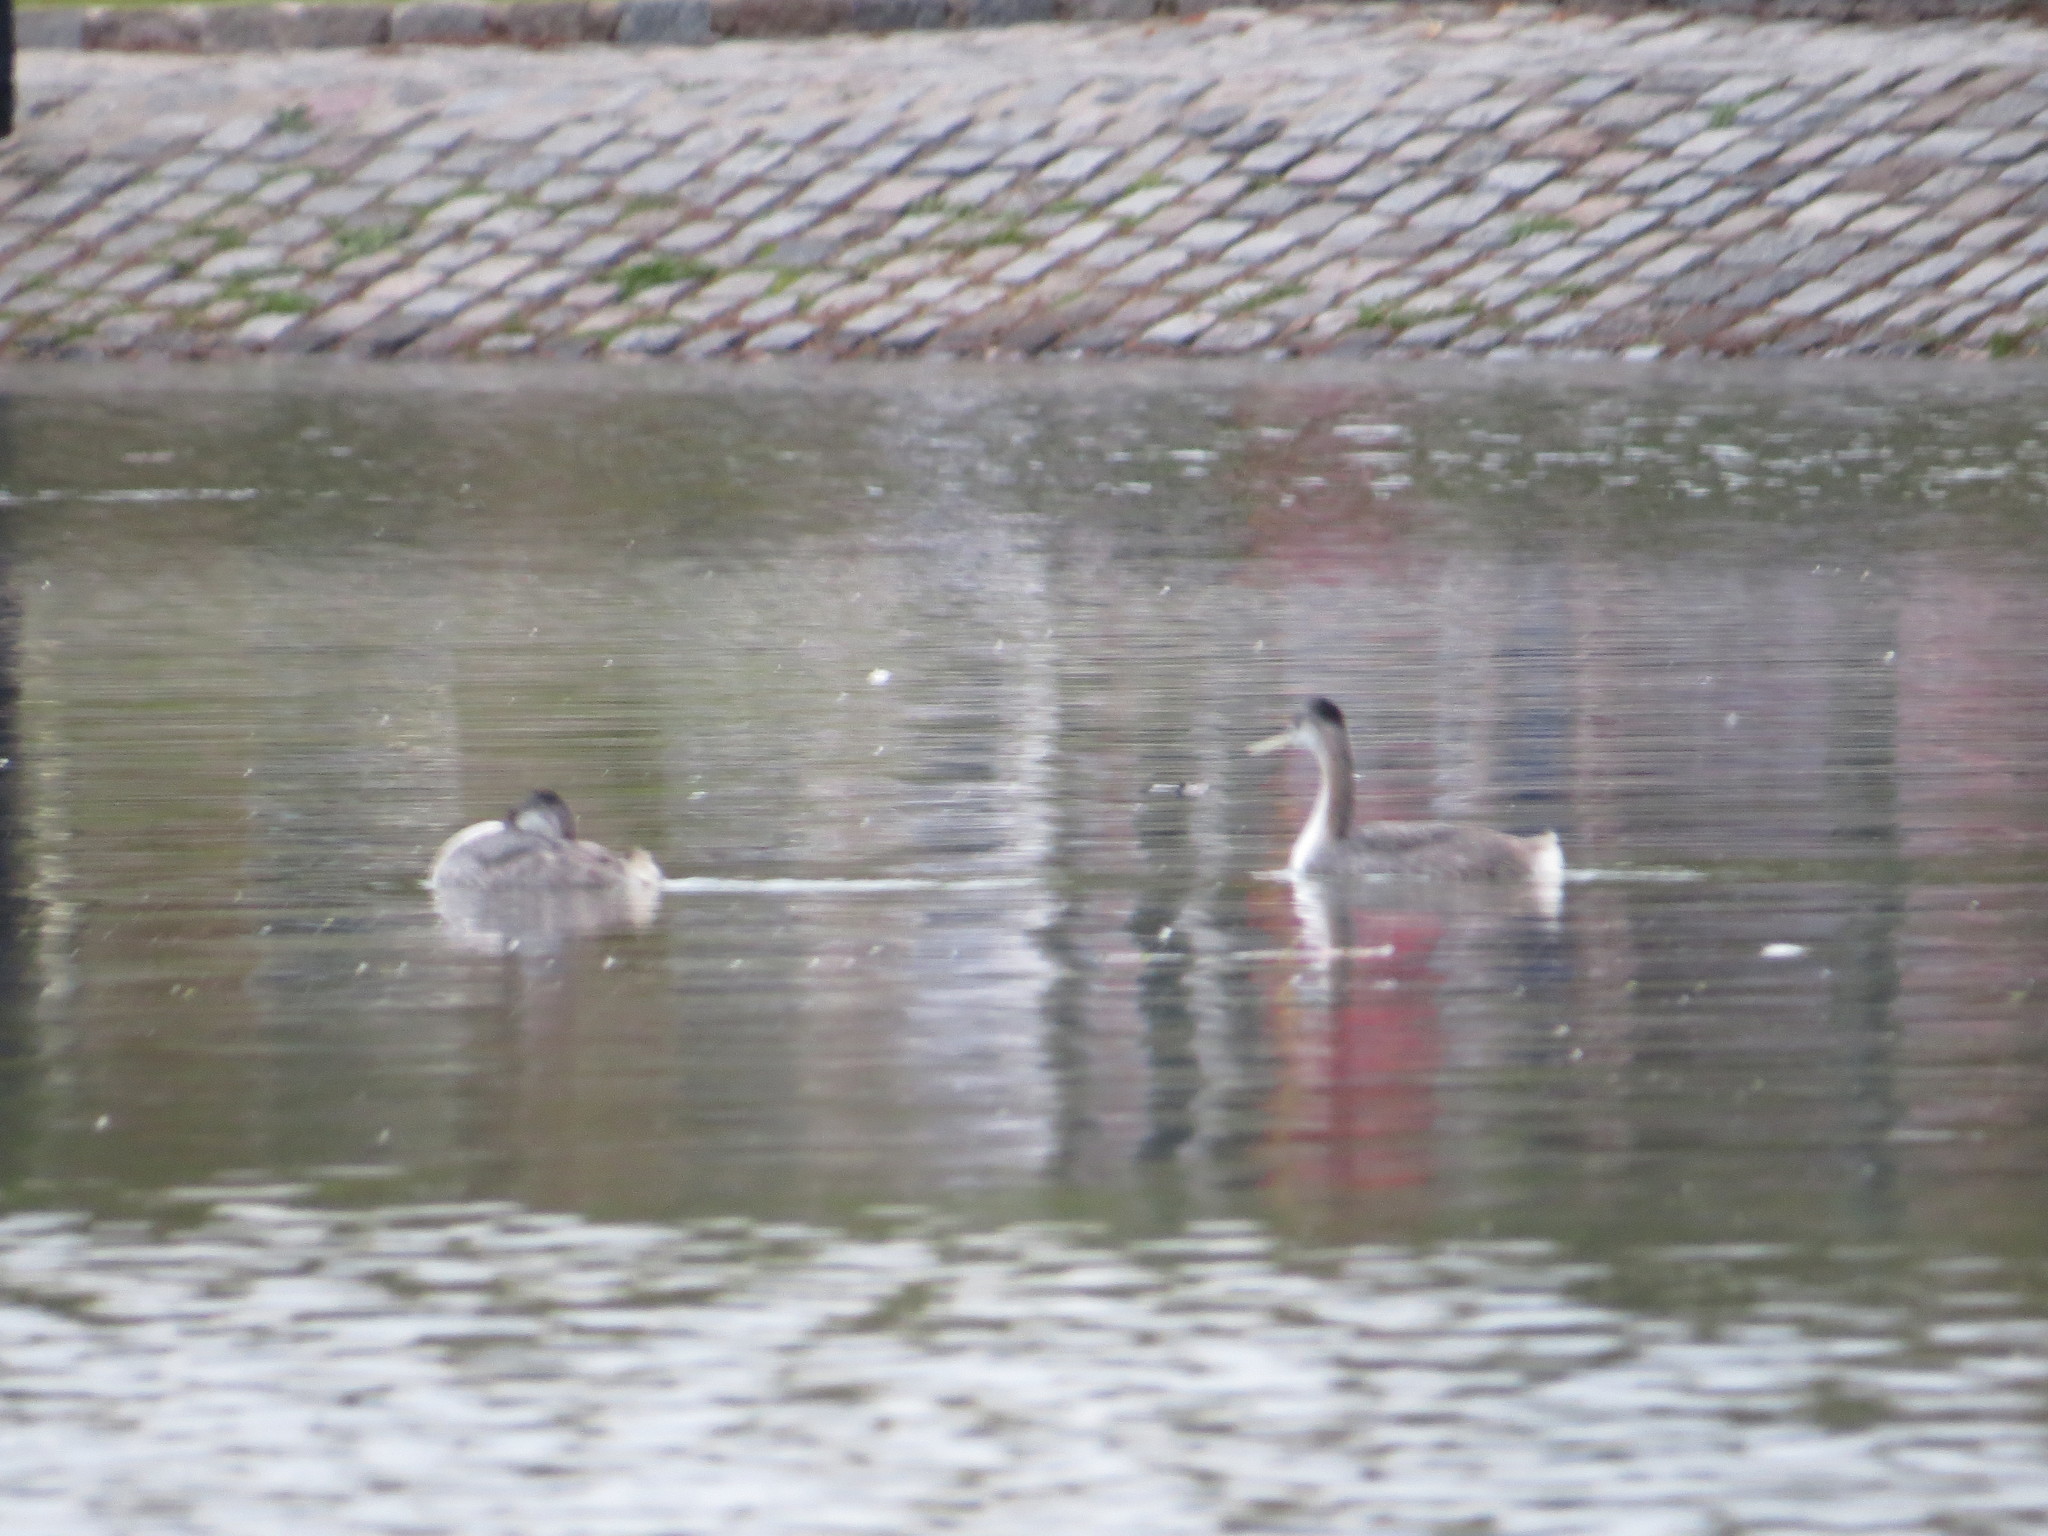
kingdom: Animalia
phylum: Chordata
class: Aves
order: Podicipediformes
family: Podicipedidae
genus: Podiceps
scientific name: Podiceps major
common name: Great grebe
